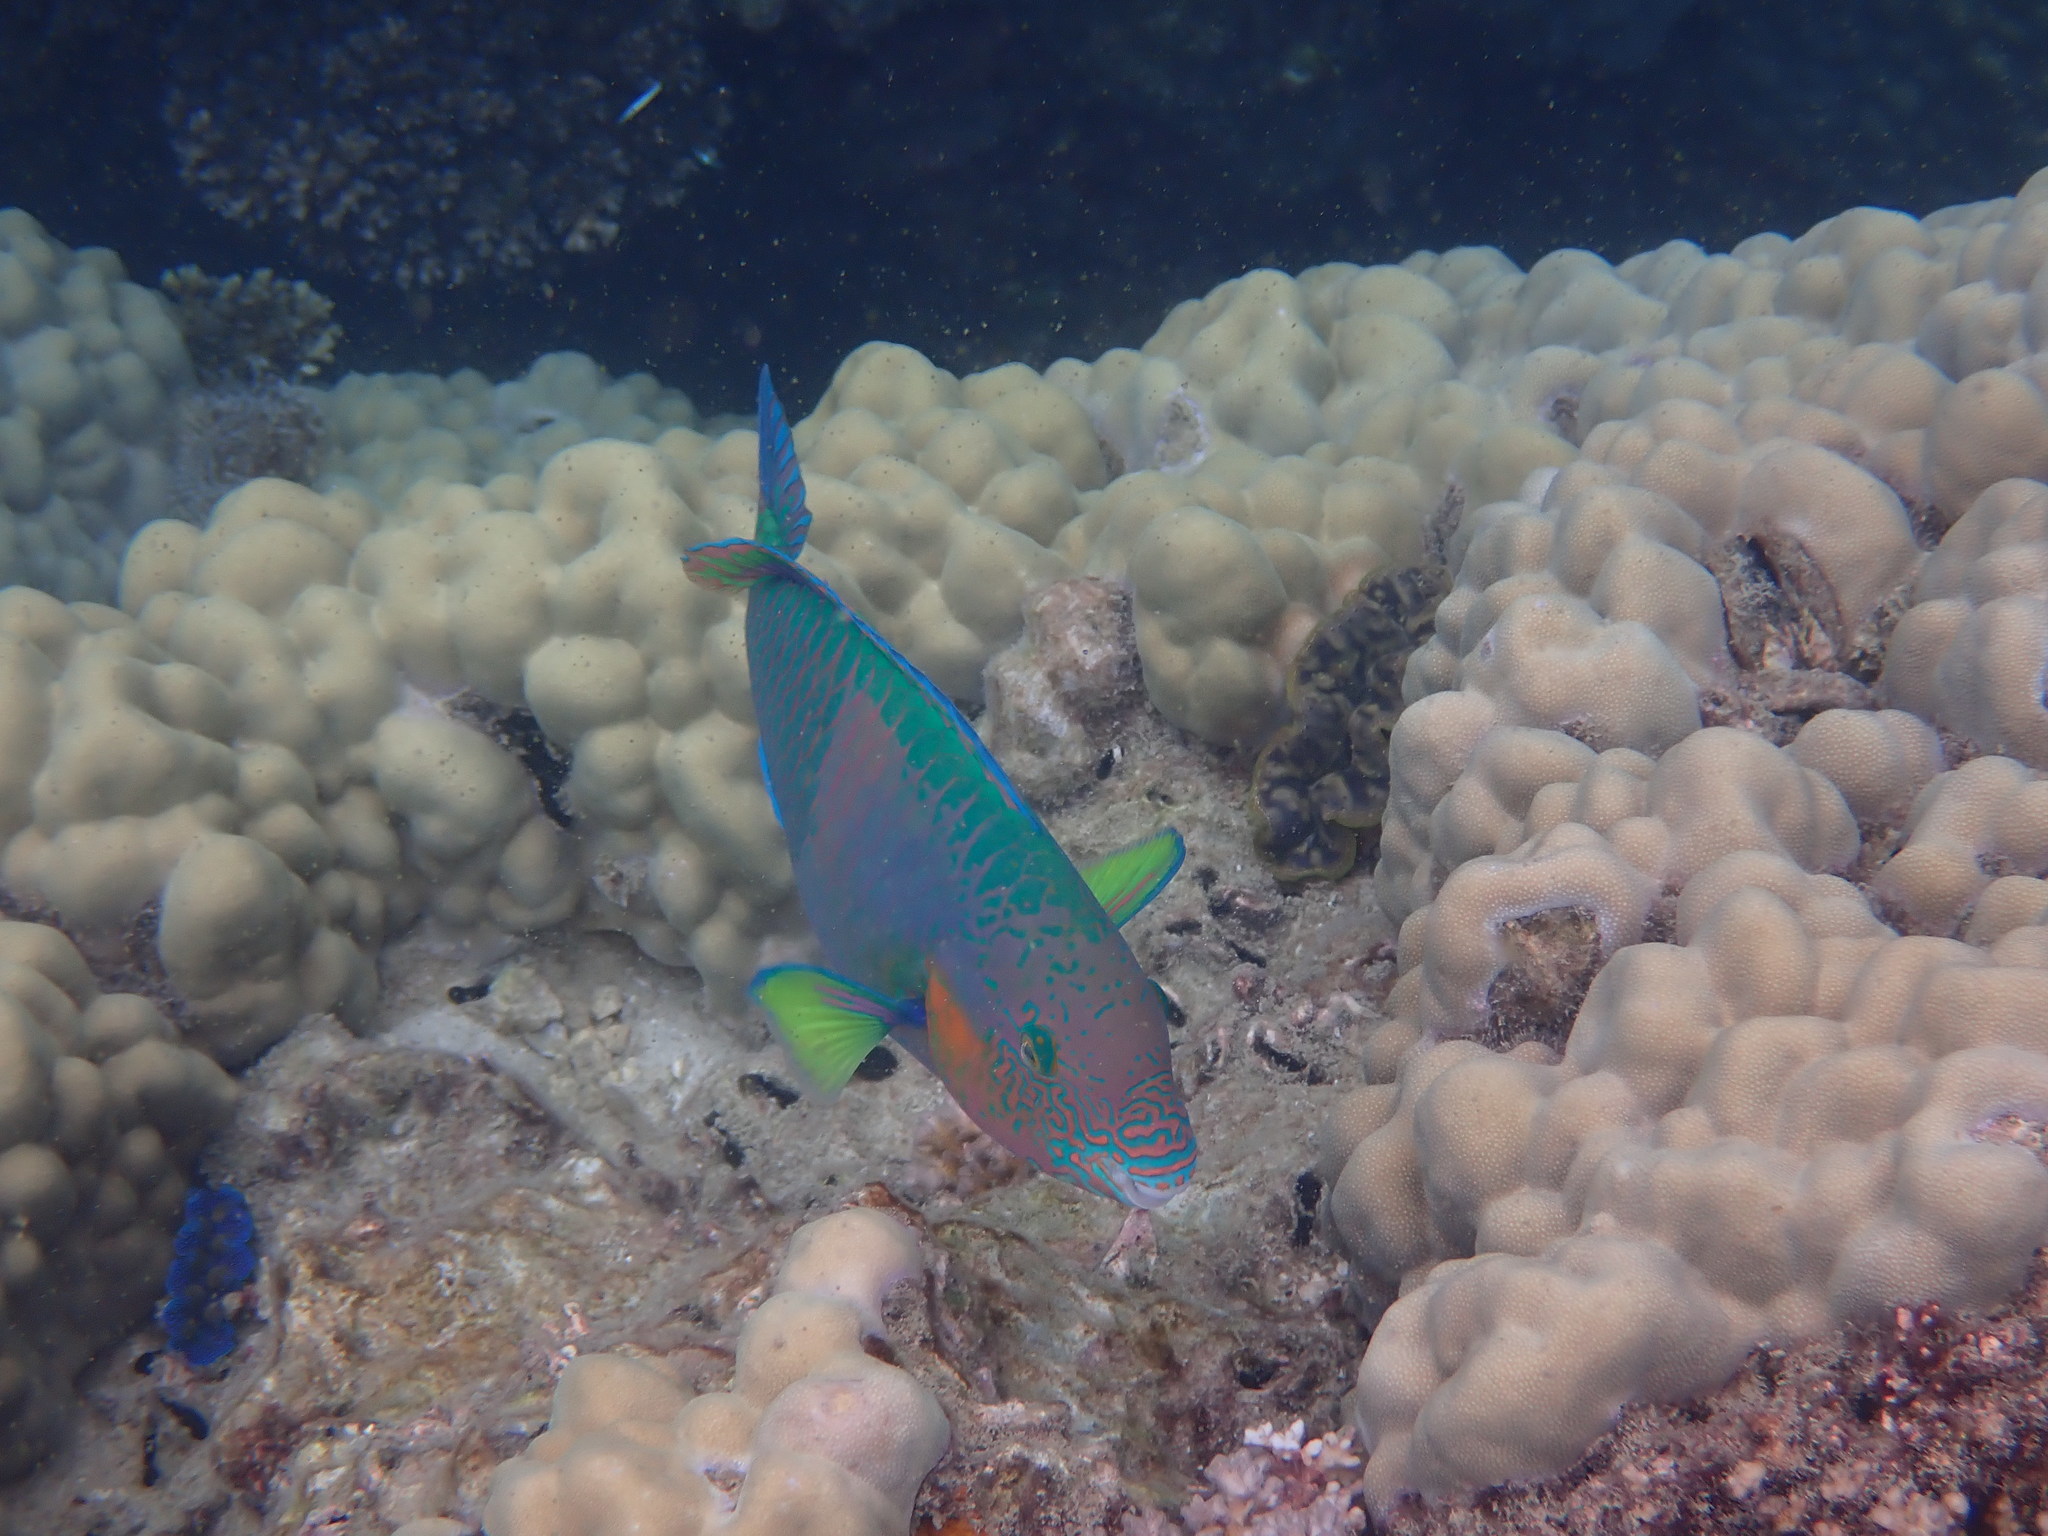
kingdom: Animalia
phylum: Chordata
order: Perciformes
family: Scaridae
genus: Scarus
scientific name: Scarus rivulatus
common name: Surf parrotfish
